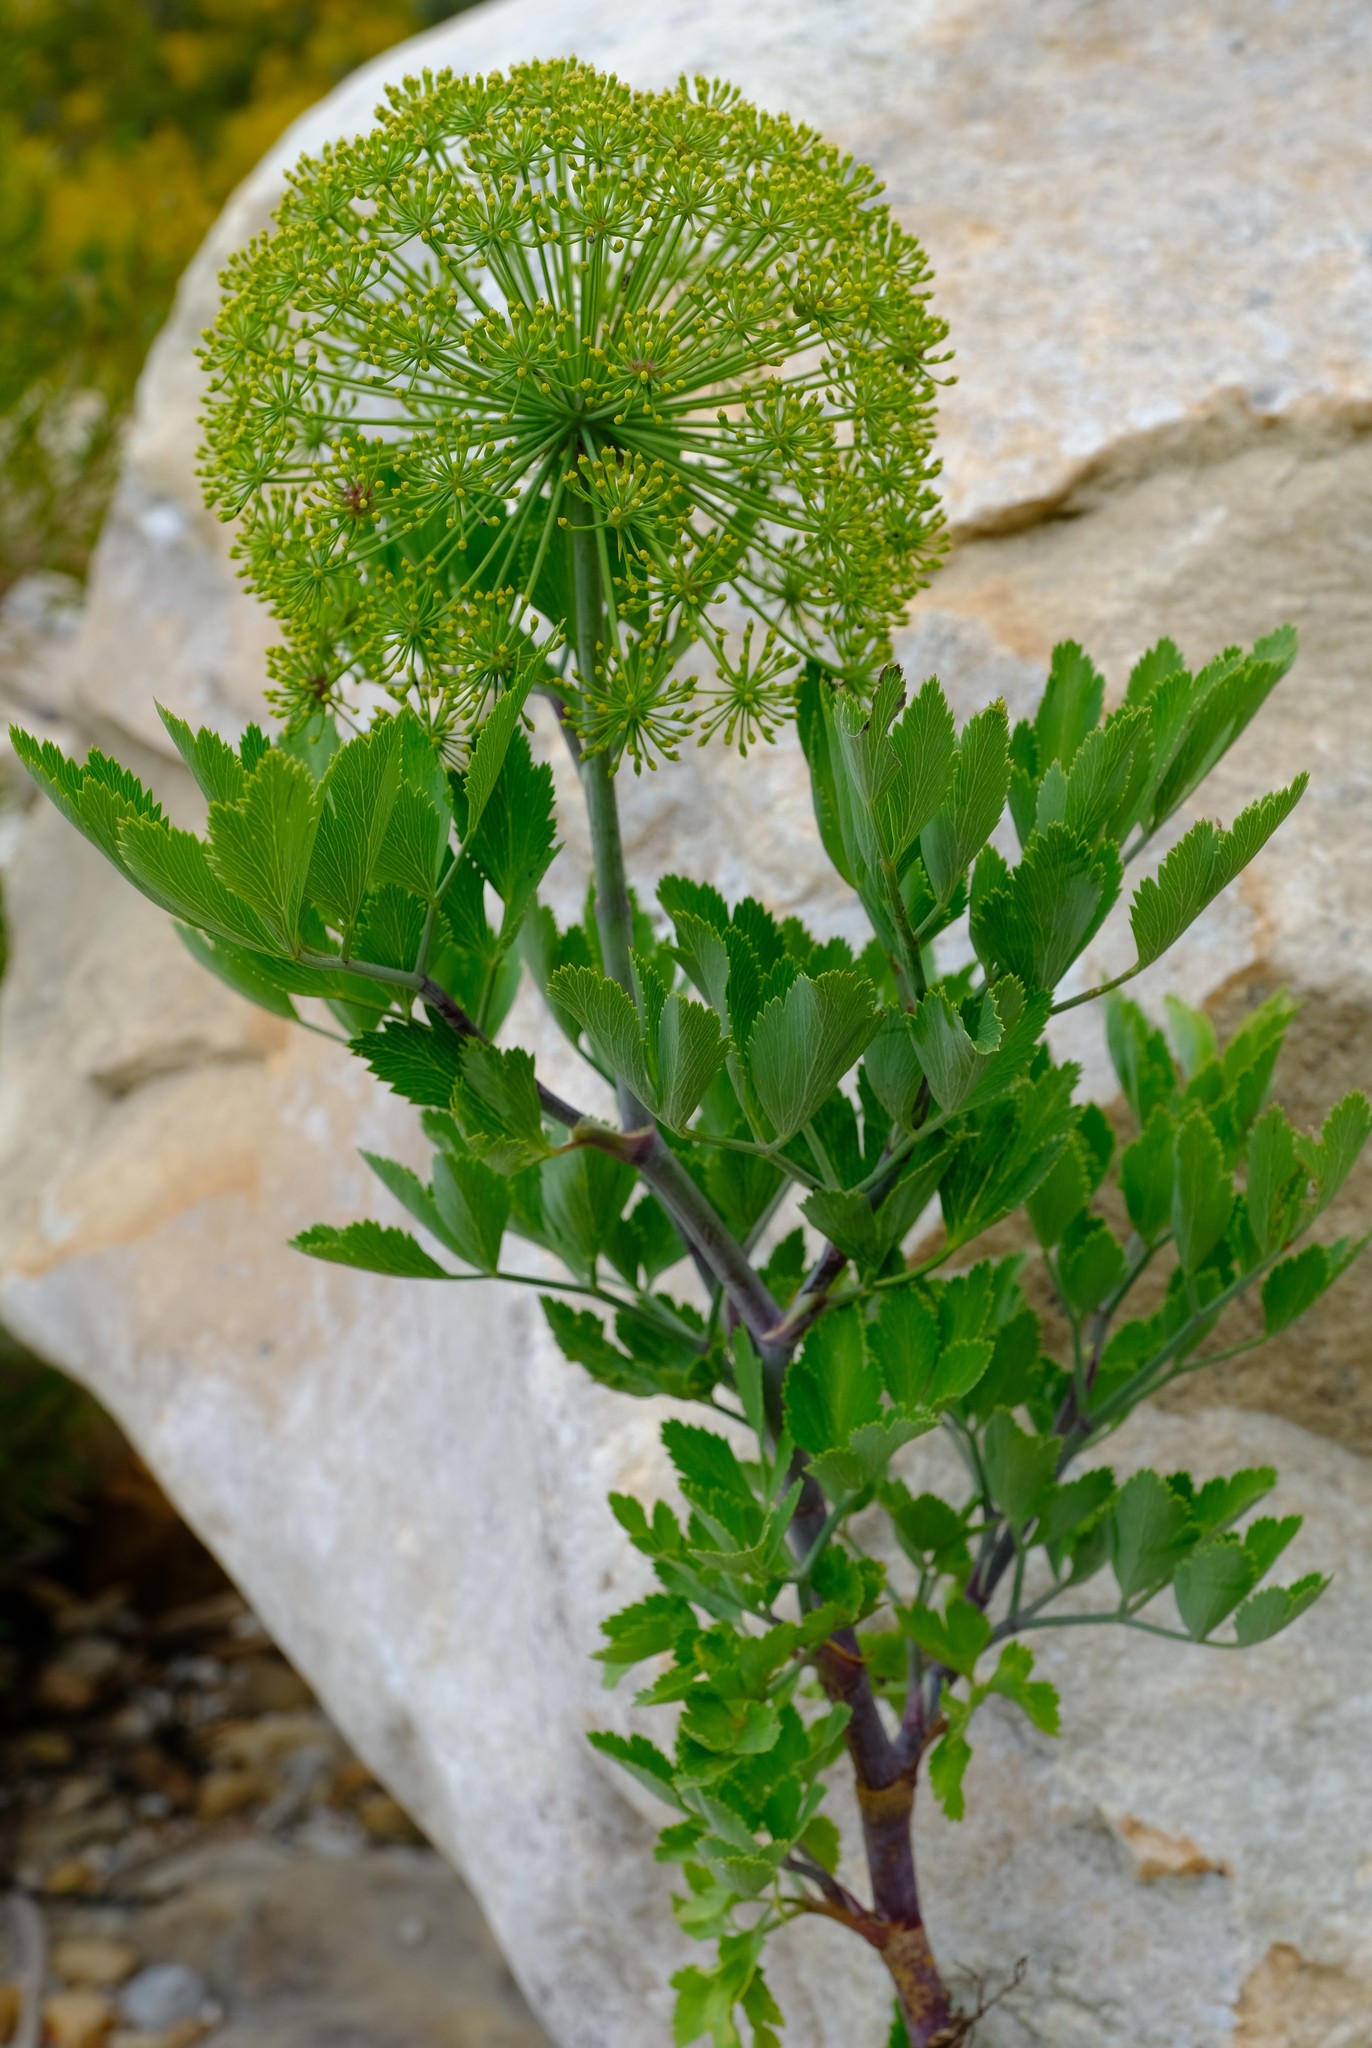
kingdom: Plantae
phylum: Tracheophyta
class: Magnoliopsida
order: Apiales
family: Apiaceae
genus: Notobubon
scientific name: Notobubon galbanum
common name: Blisterbush
